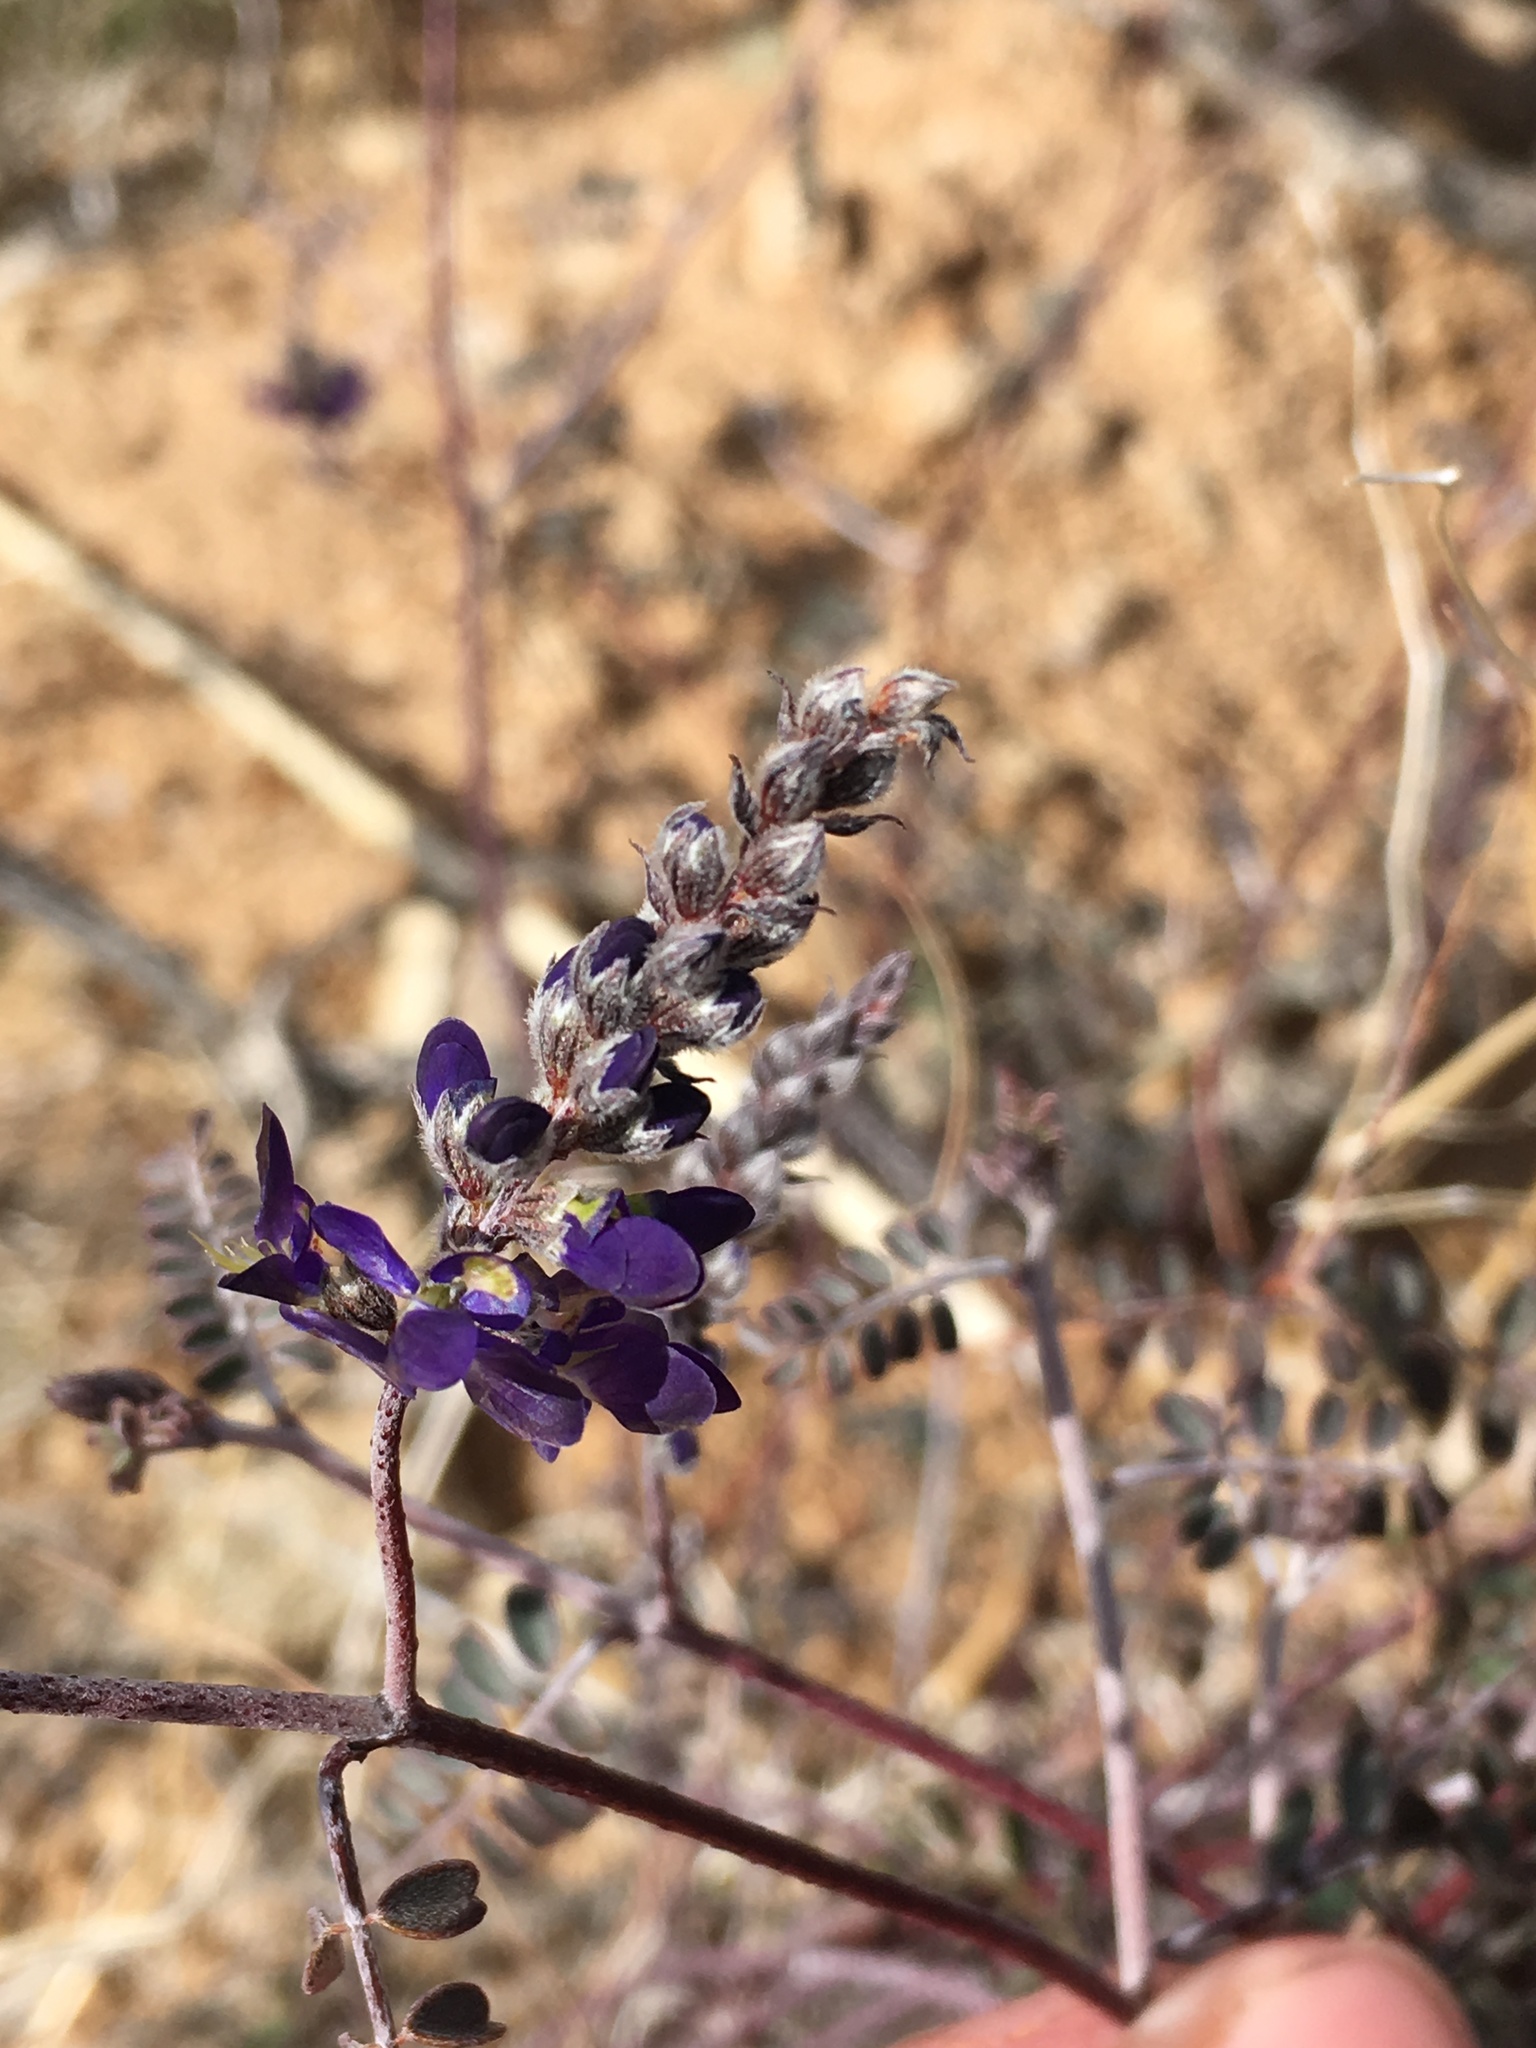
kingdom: Plantae
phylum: Tracheophyta
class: Magnoliopsida
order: Fabales
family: Fabaceae
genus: Marina
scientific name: Marina parryi
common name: Parry's marina
